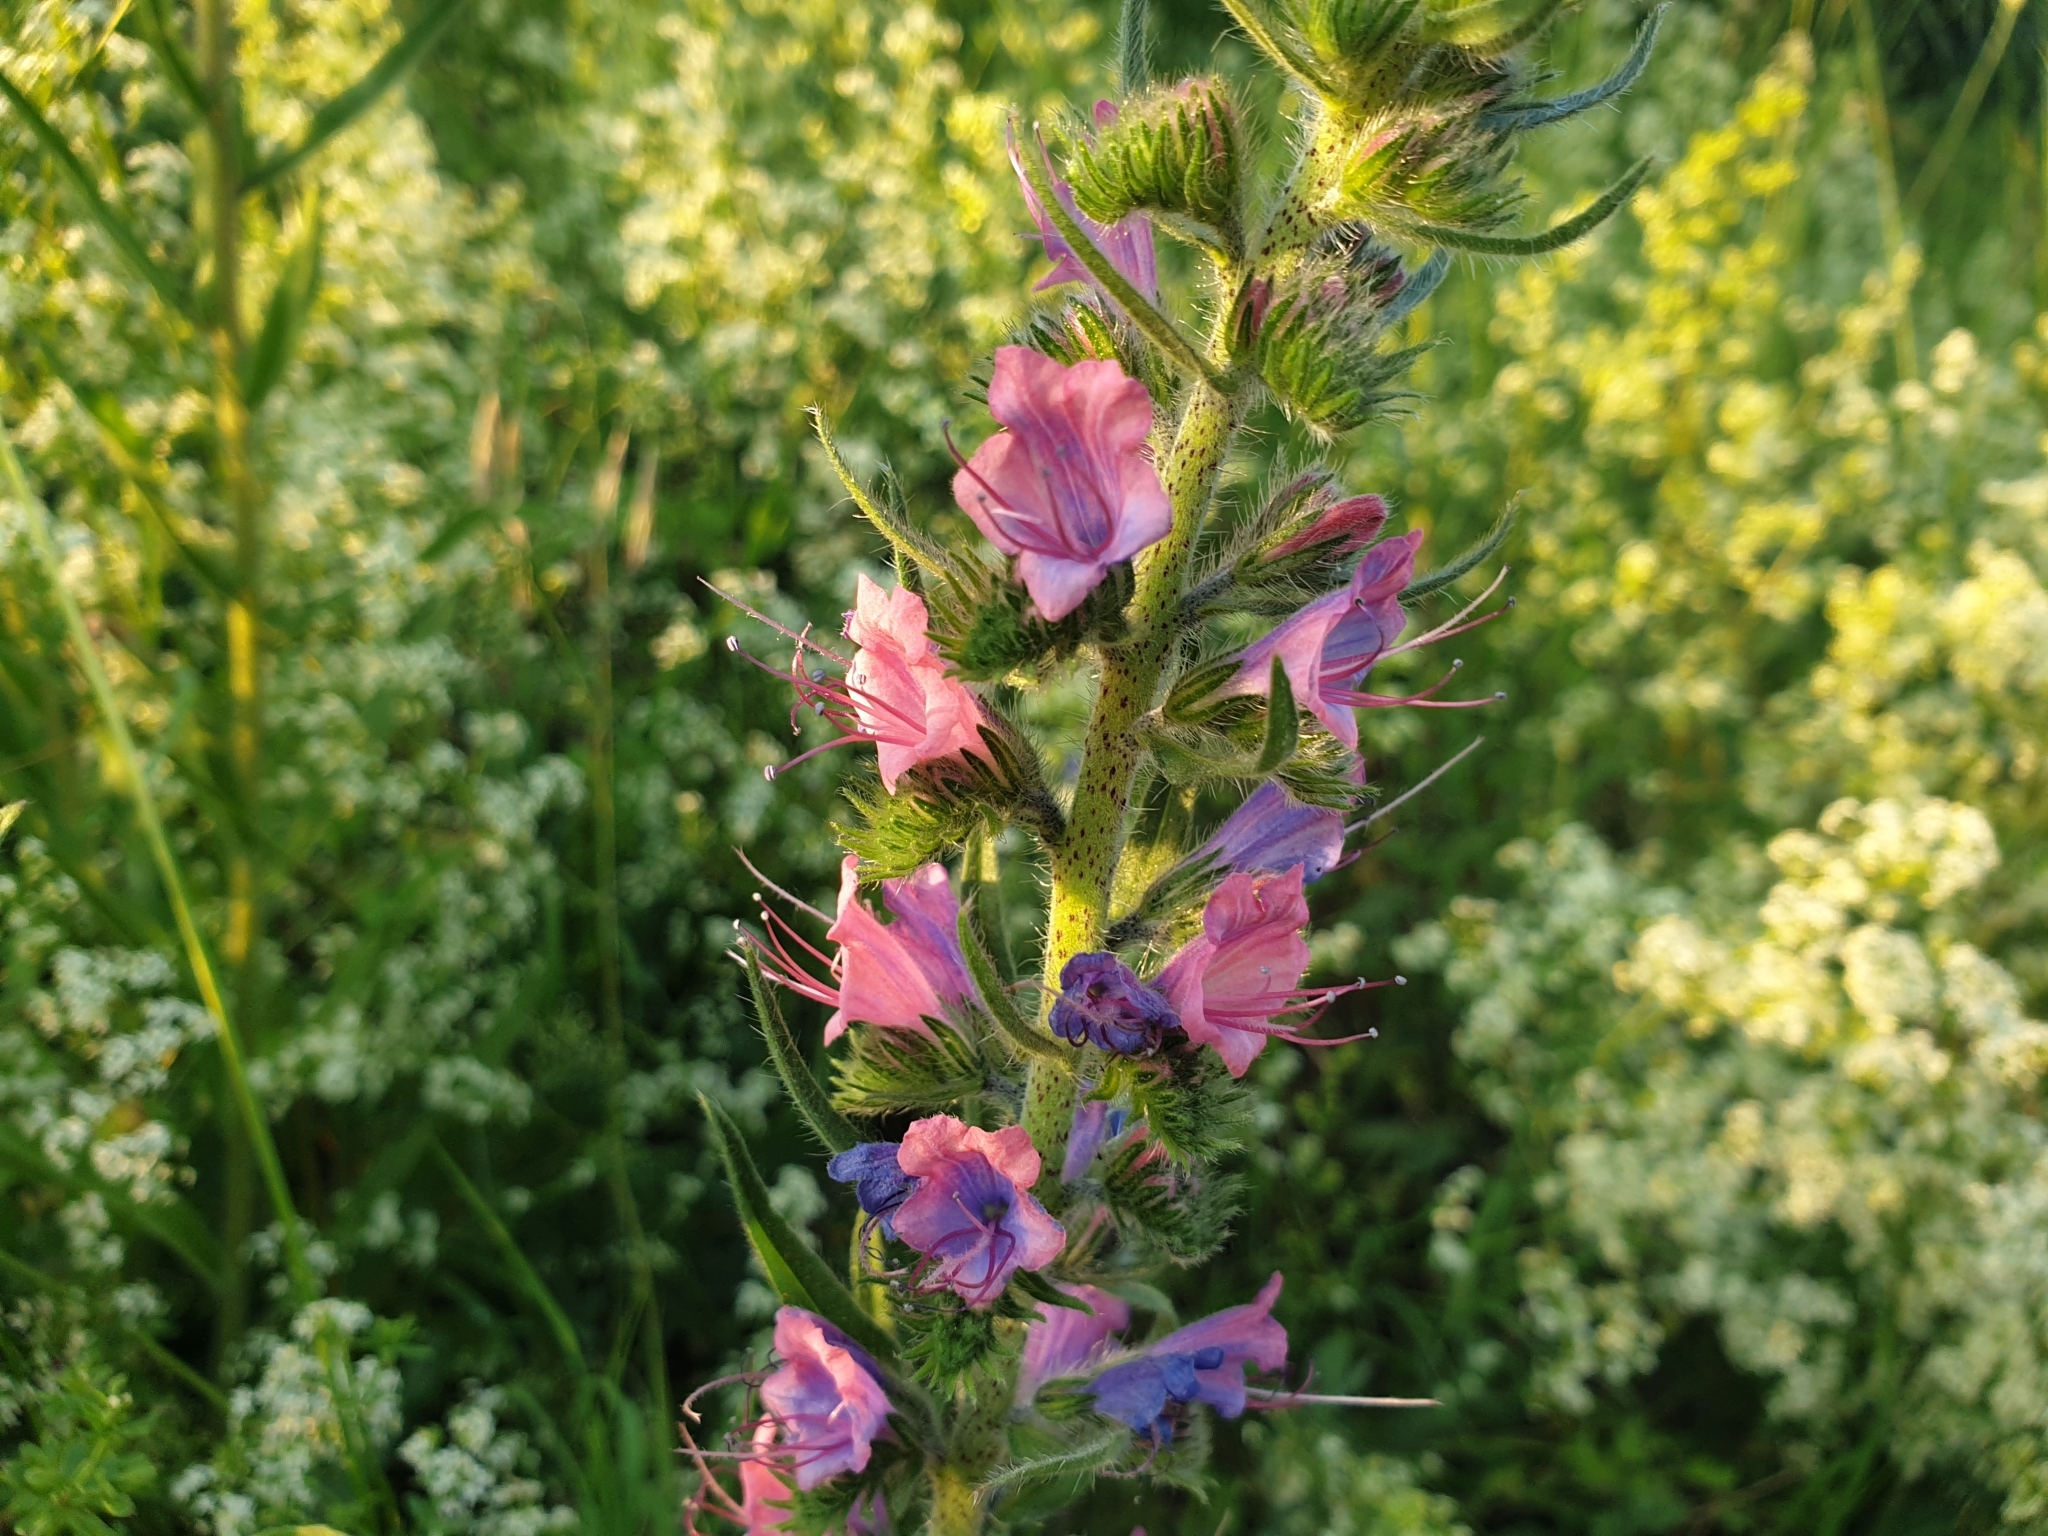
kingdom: Plantae
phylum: Tracheophyta
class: Magnoliopsida
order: Boraginales
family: Boraginaceae
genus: Echium
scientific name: Echium vulgare
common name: Common viper's bugloss
